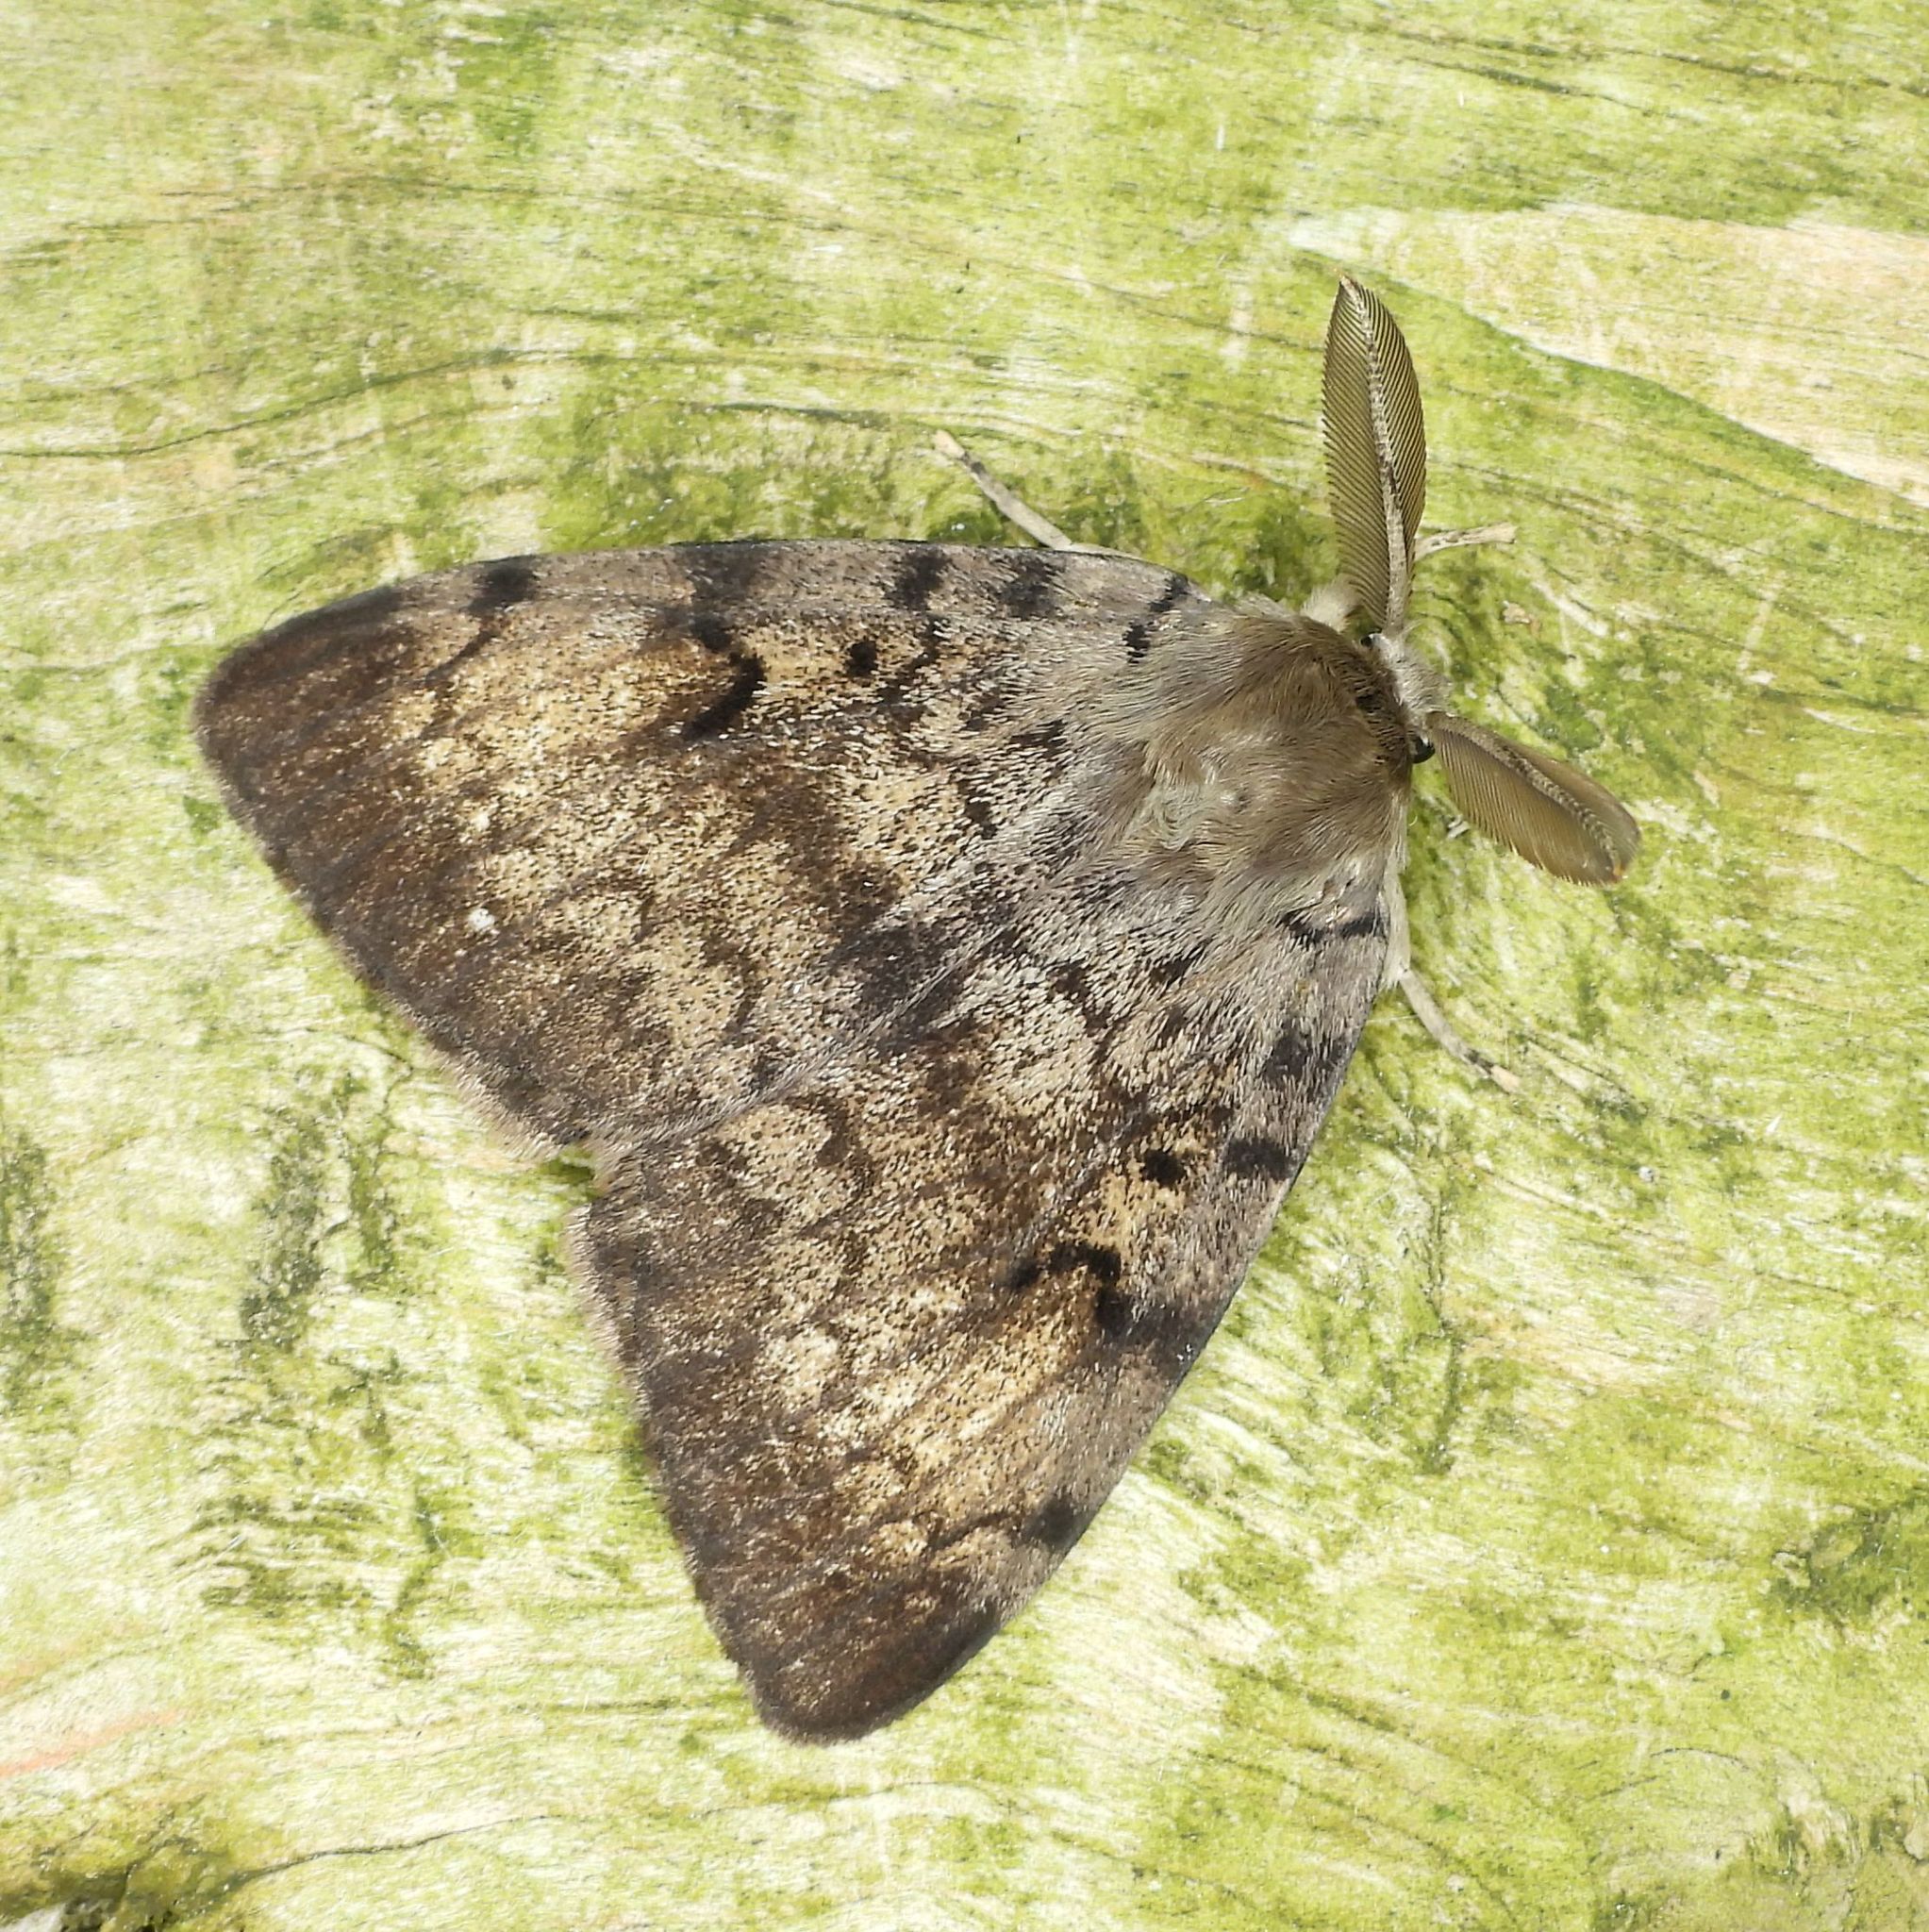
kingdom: Animalia
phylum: Arthropoda
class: Insecta
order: Lepidoptera
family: Erebidae
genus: Lymantria
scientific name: Lymantria dispar
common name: Gypsy moth
